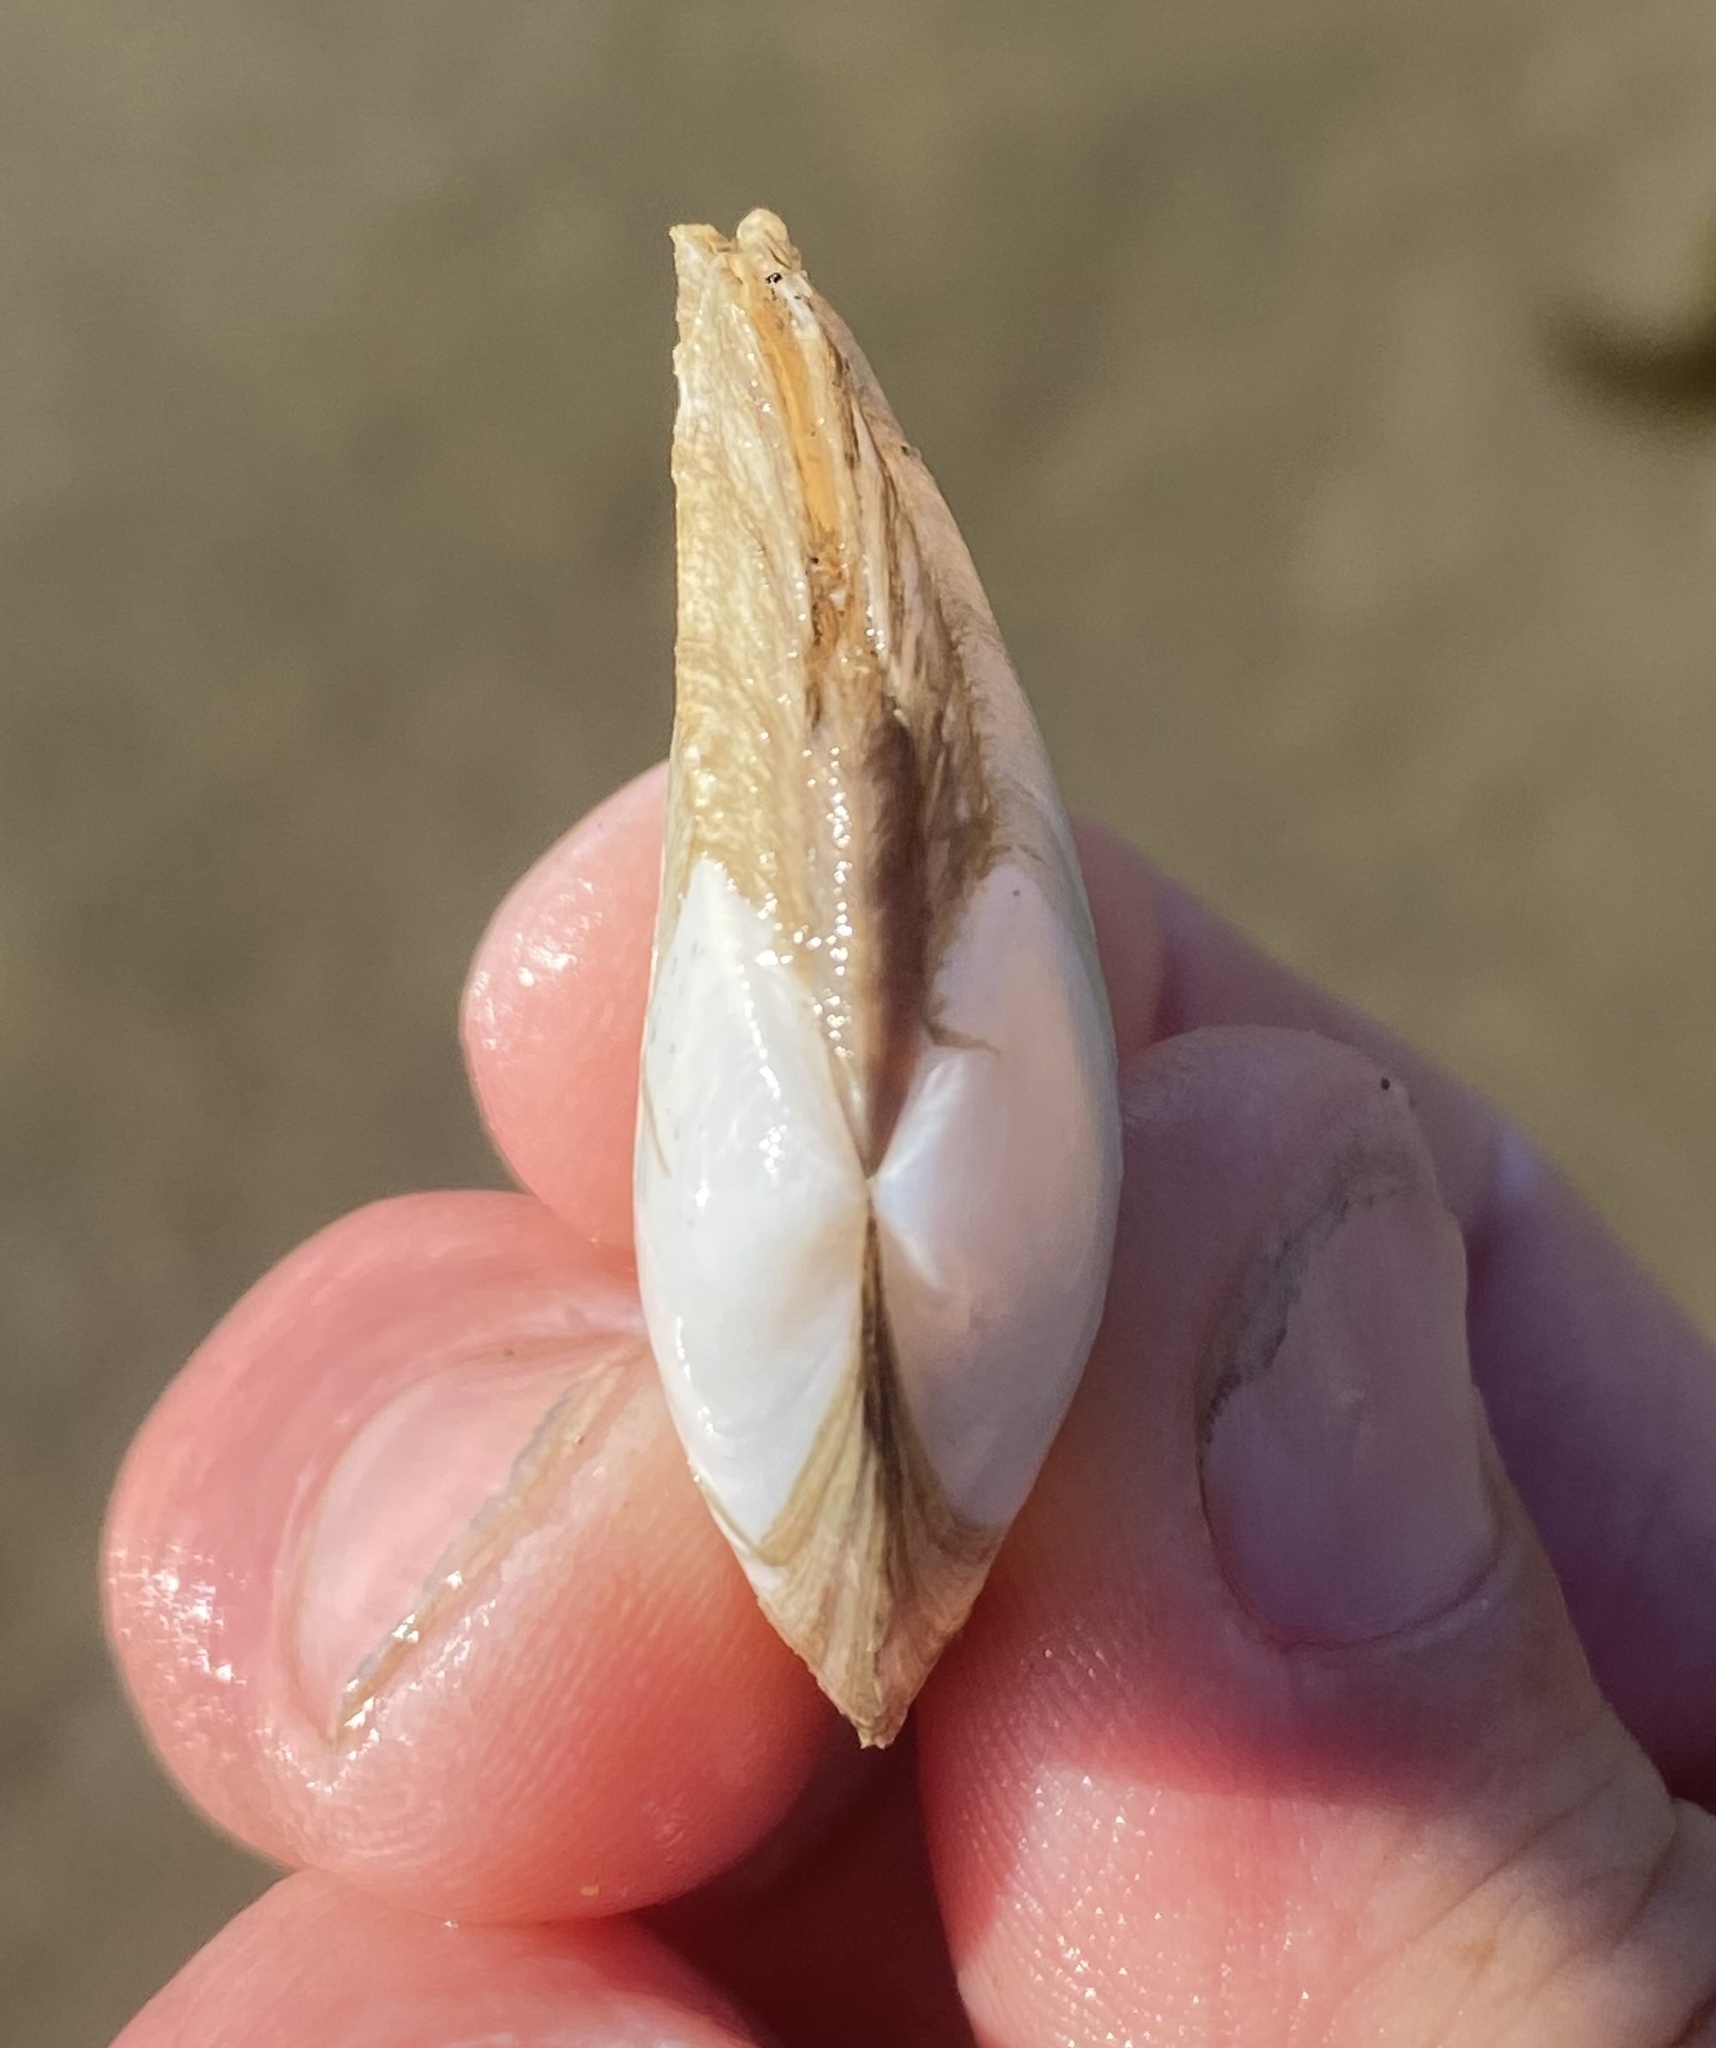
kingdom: Animalia
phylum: Mollusca
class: Bivalvia
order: Cardiida
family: Tellinidae
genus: Macoma
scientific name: Macoma nasuta
